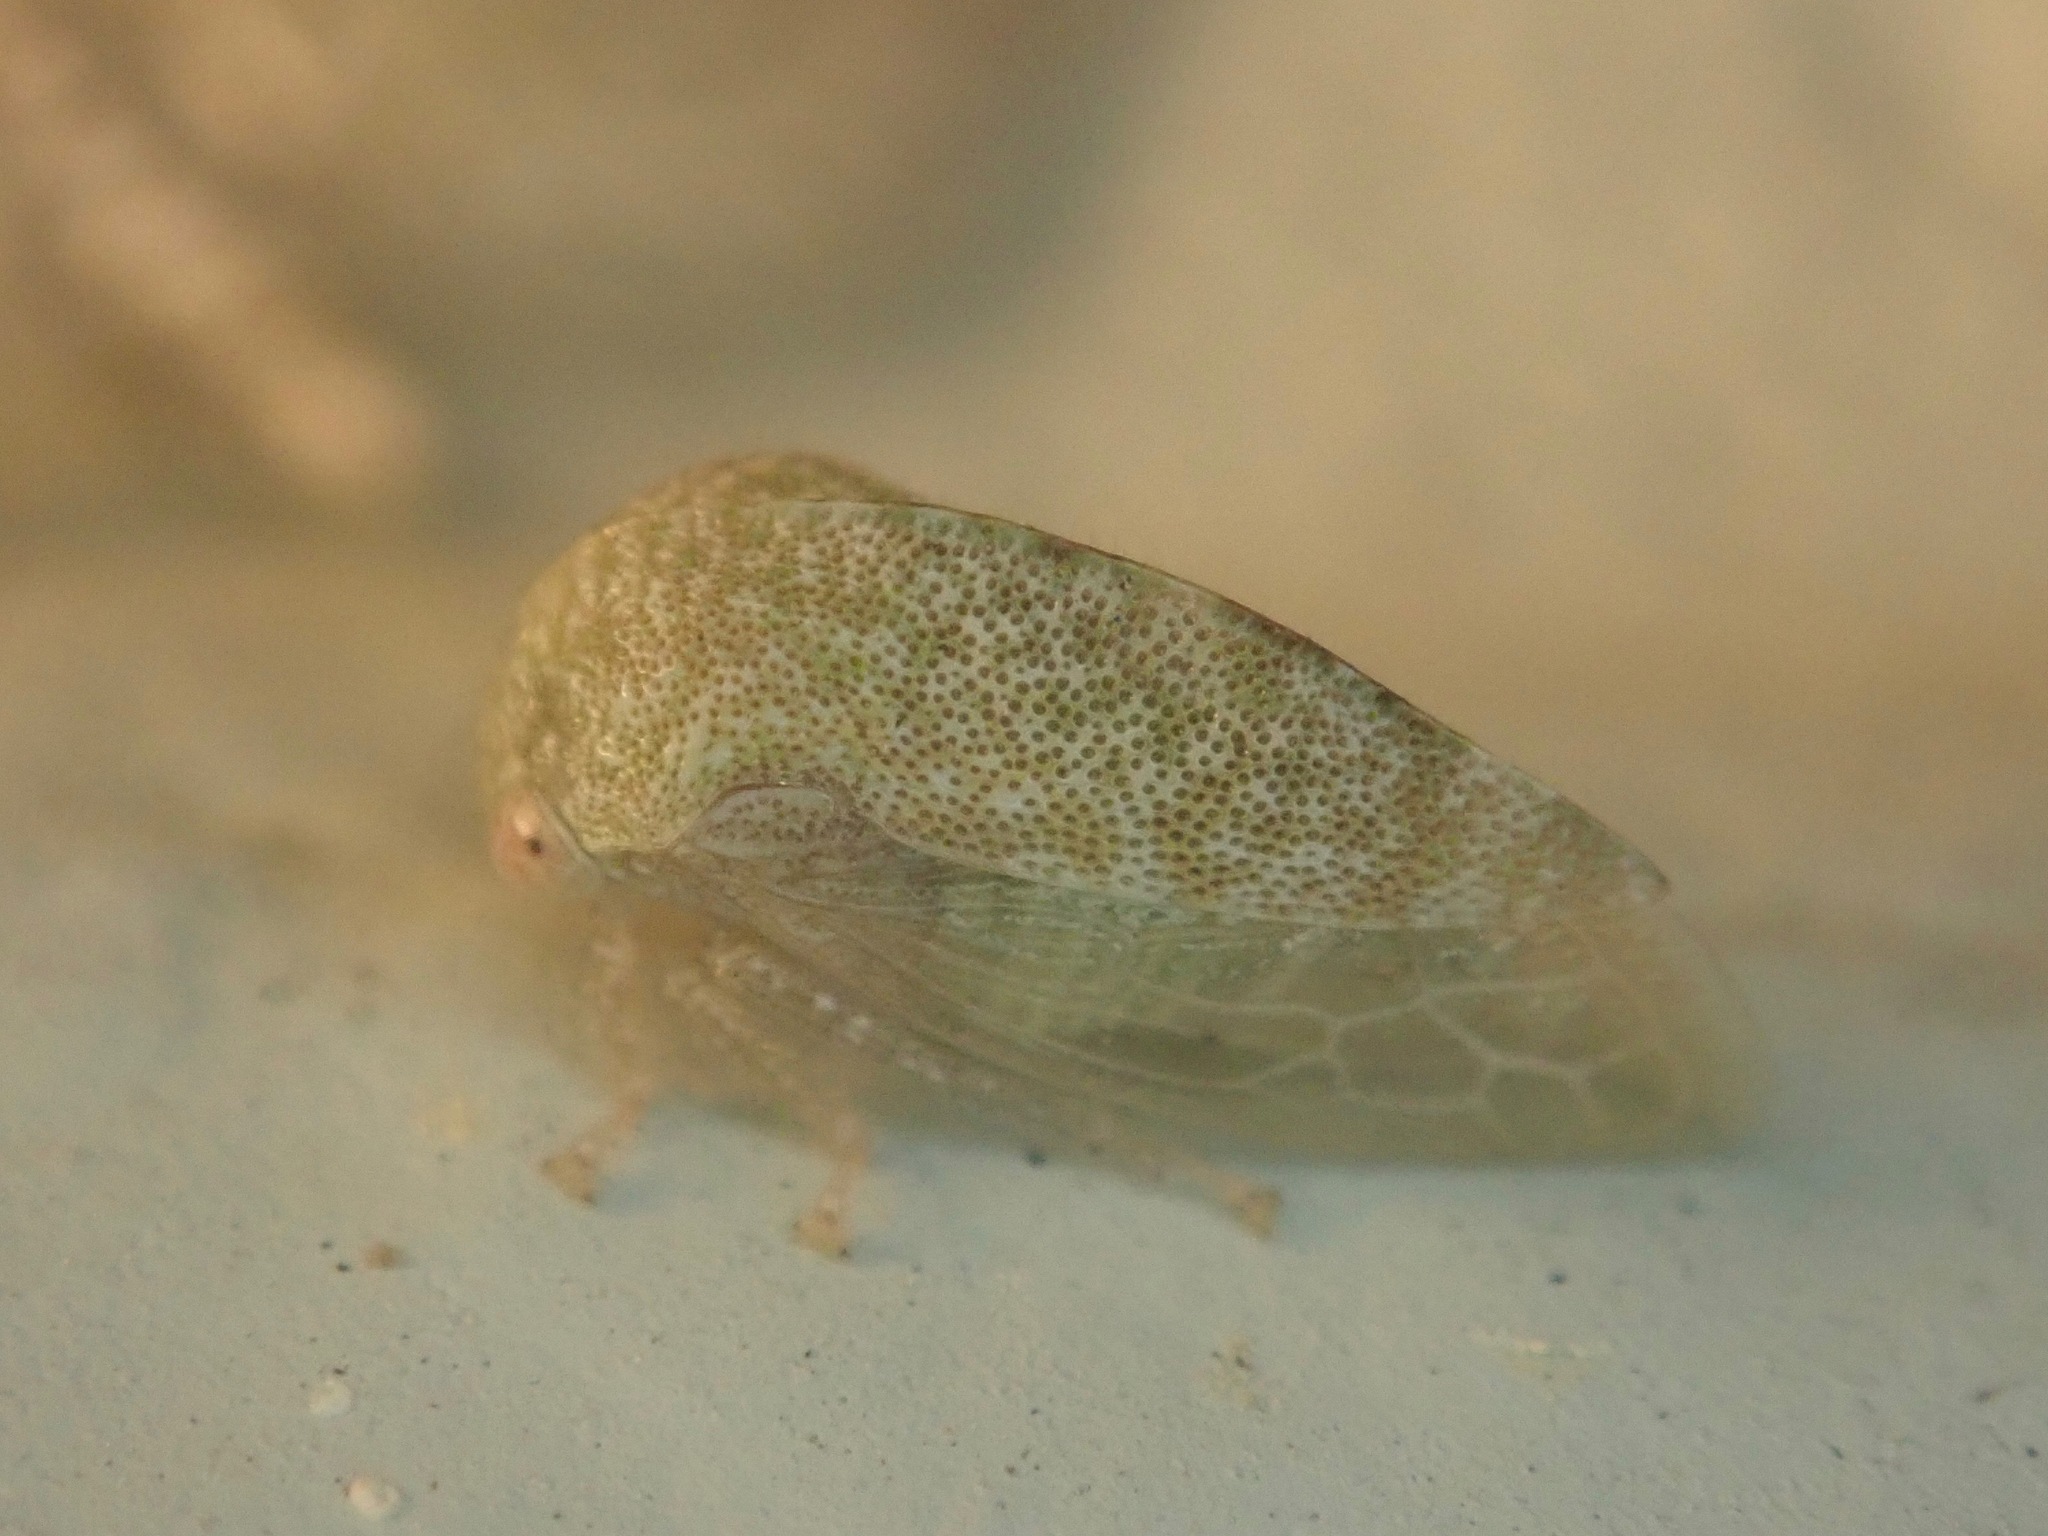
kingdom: Animalia
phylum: Arthropoda
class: Insecta
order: Hemiptera
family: Membracidae
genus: Cyrtolobus
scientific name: Cyrtolobus maculifrontis
